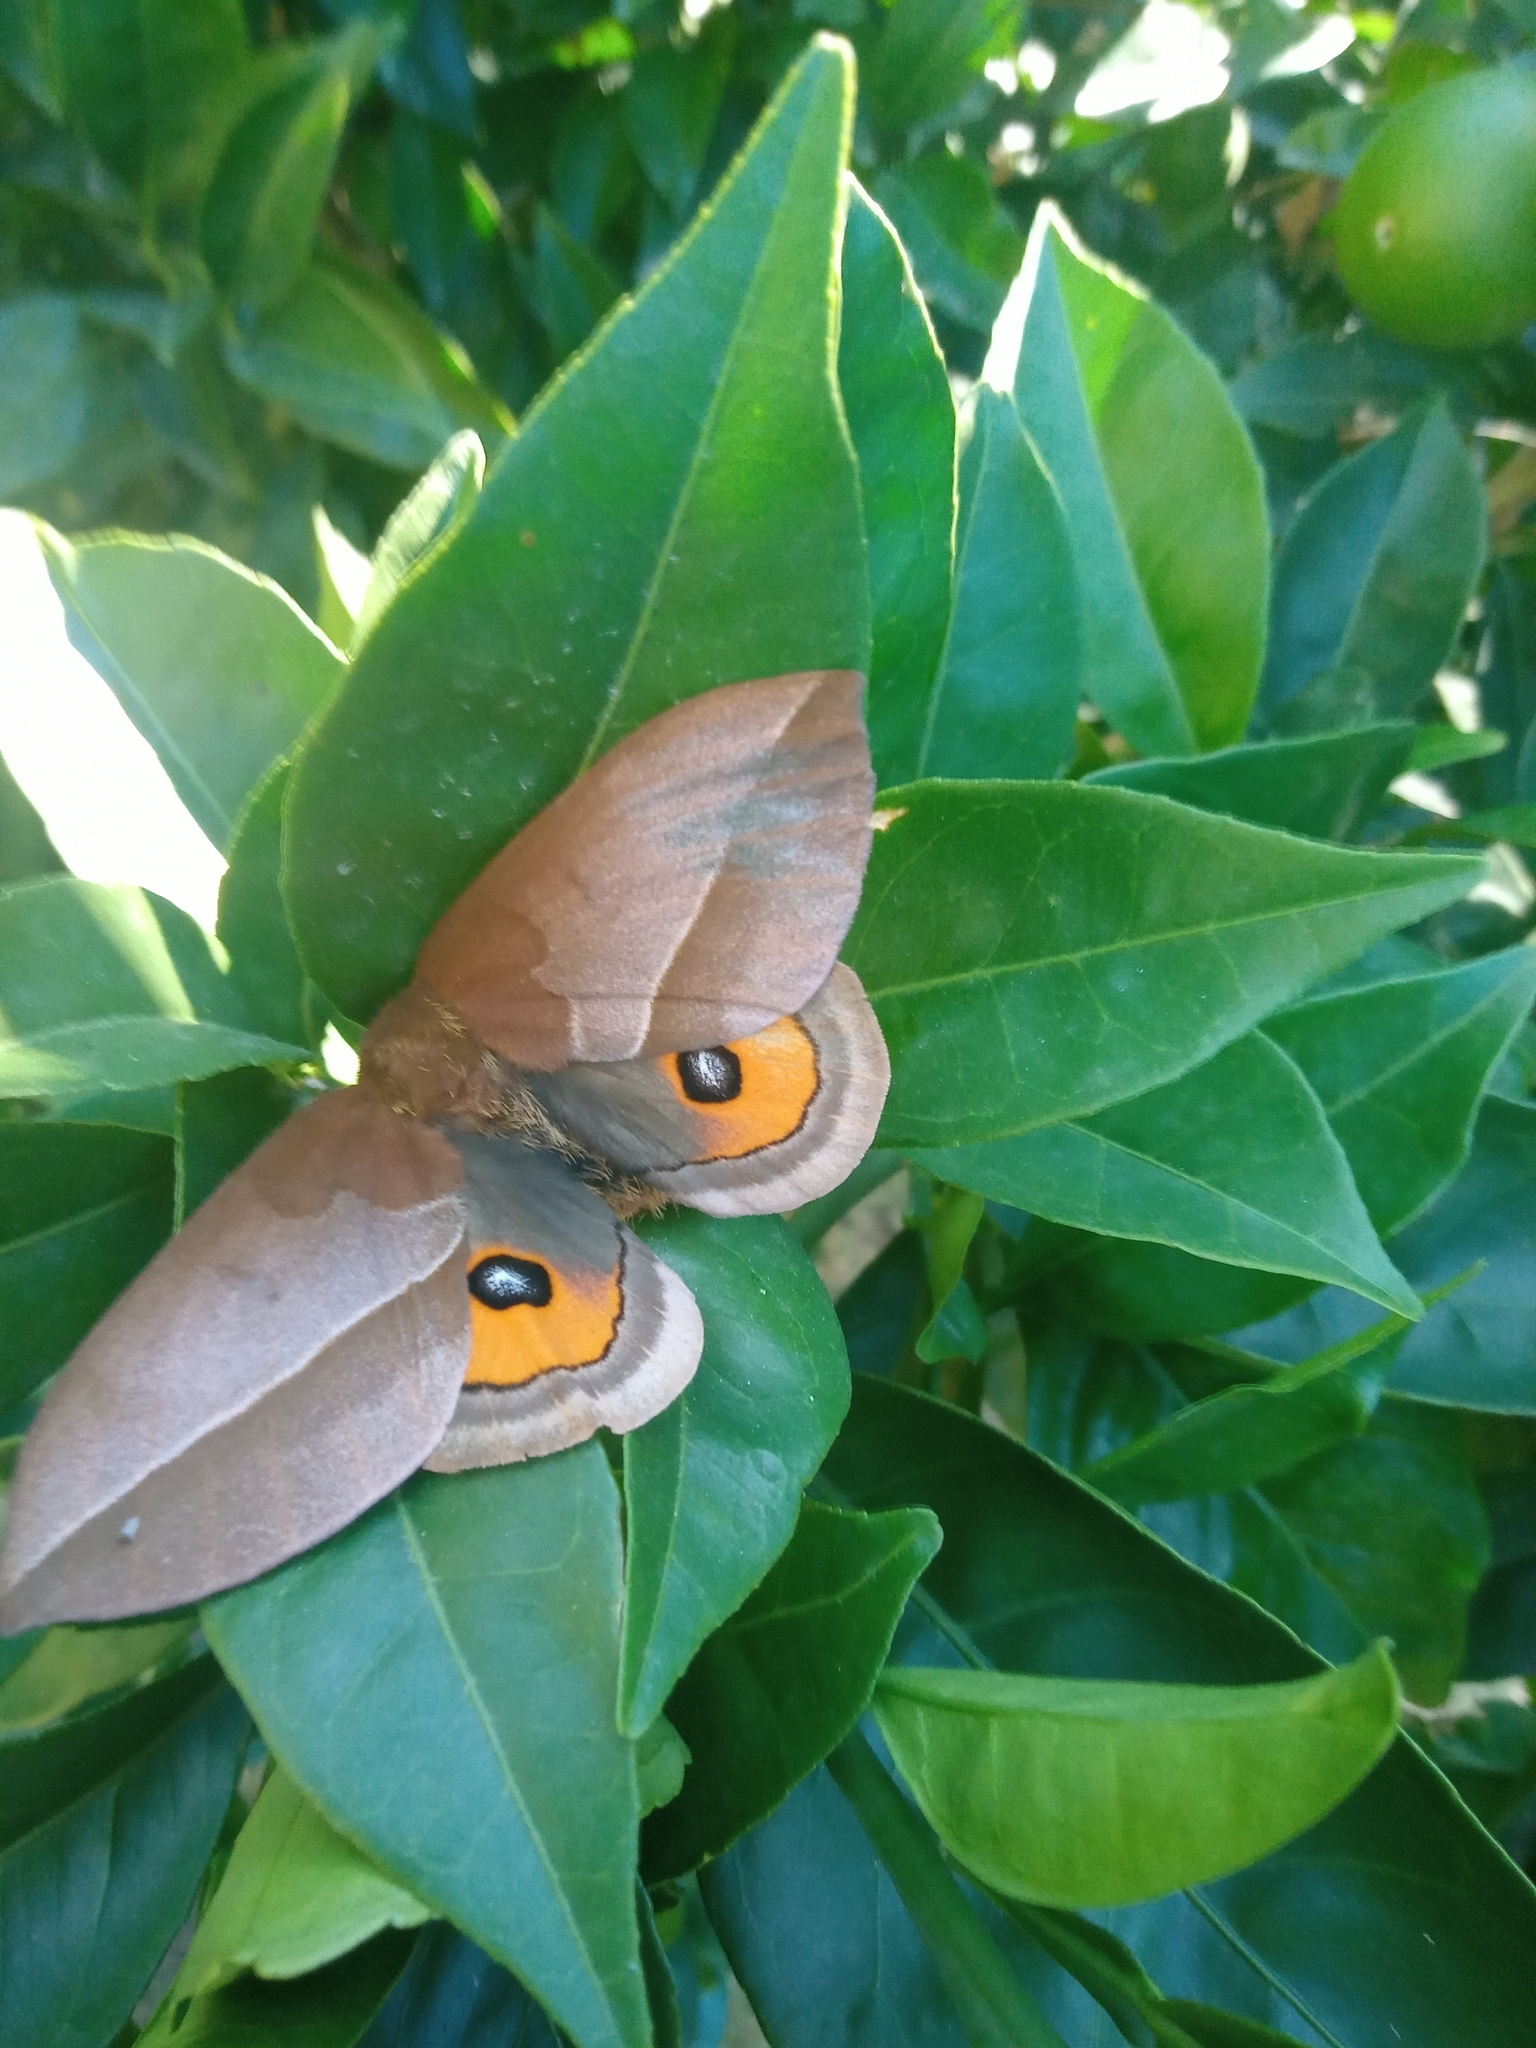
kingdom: Animalia
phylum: Arthropoda
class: Insecta
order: Lepidoptera
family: Saturniidae
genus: Automeris
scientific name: Automeris naranja
